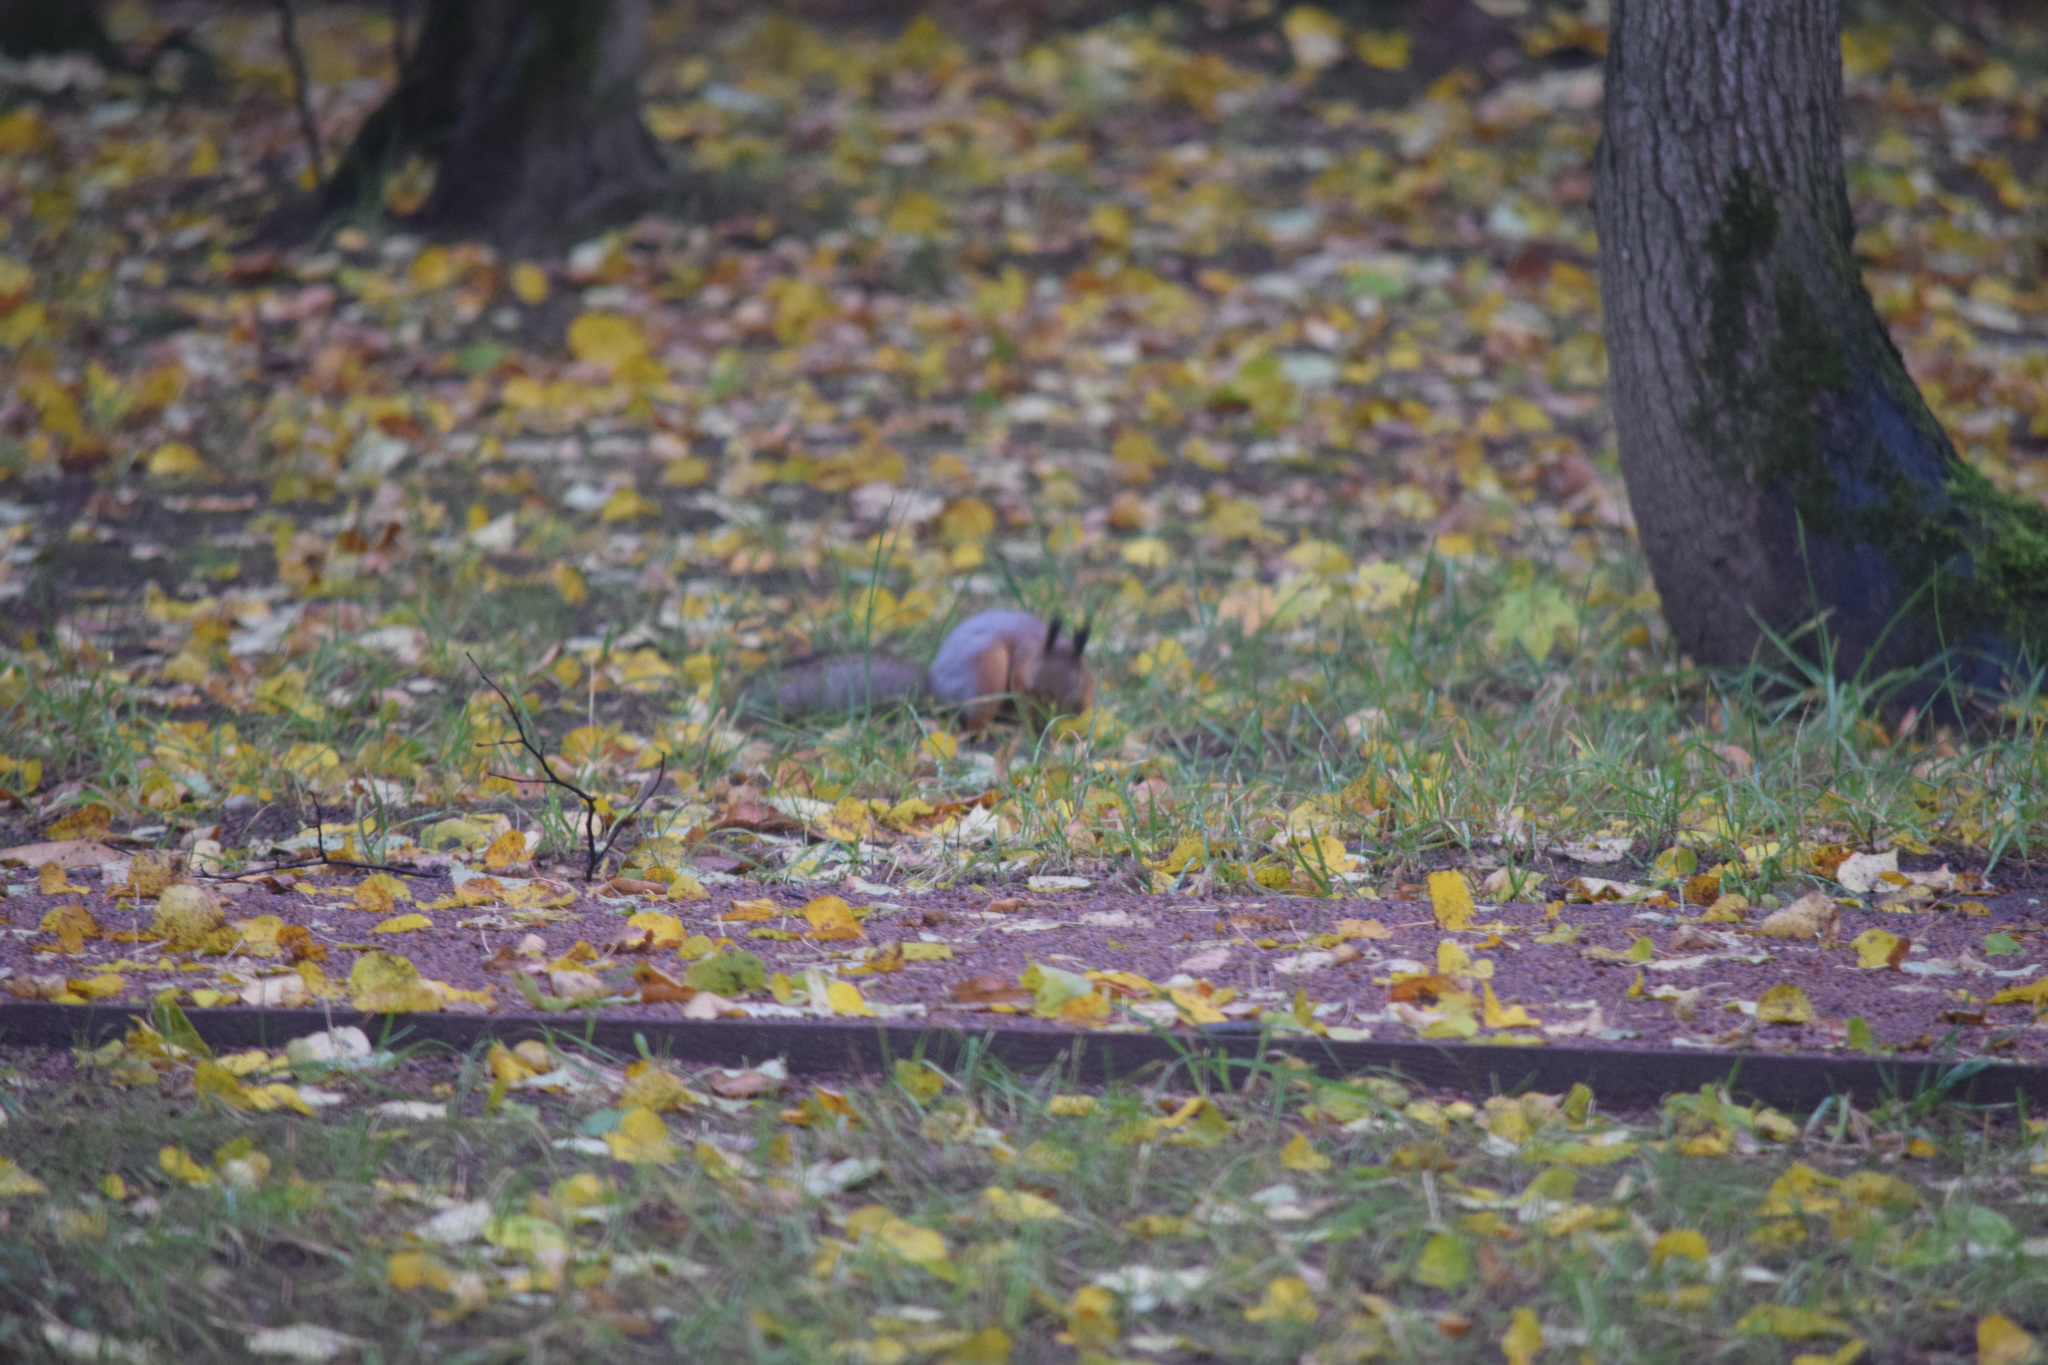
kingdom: Animalia
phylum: Chordata
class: Mammalia
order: Rodentia
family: Sciuridae
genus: Sciurus
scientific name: Sciurus vulgaris
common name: Eurasian red squirrel
